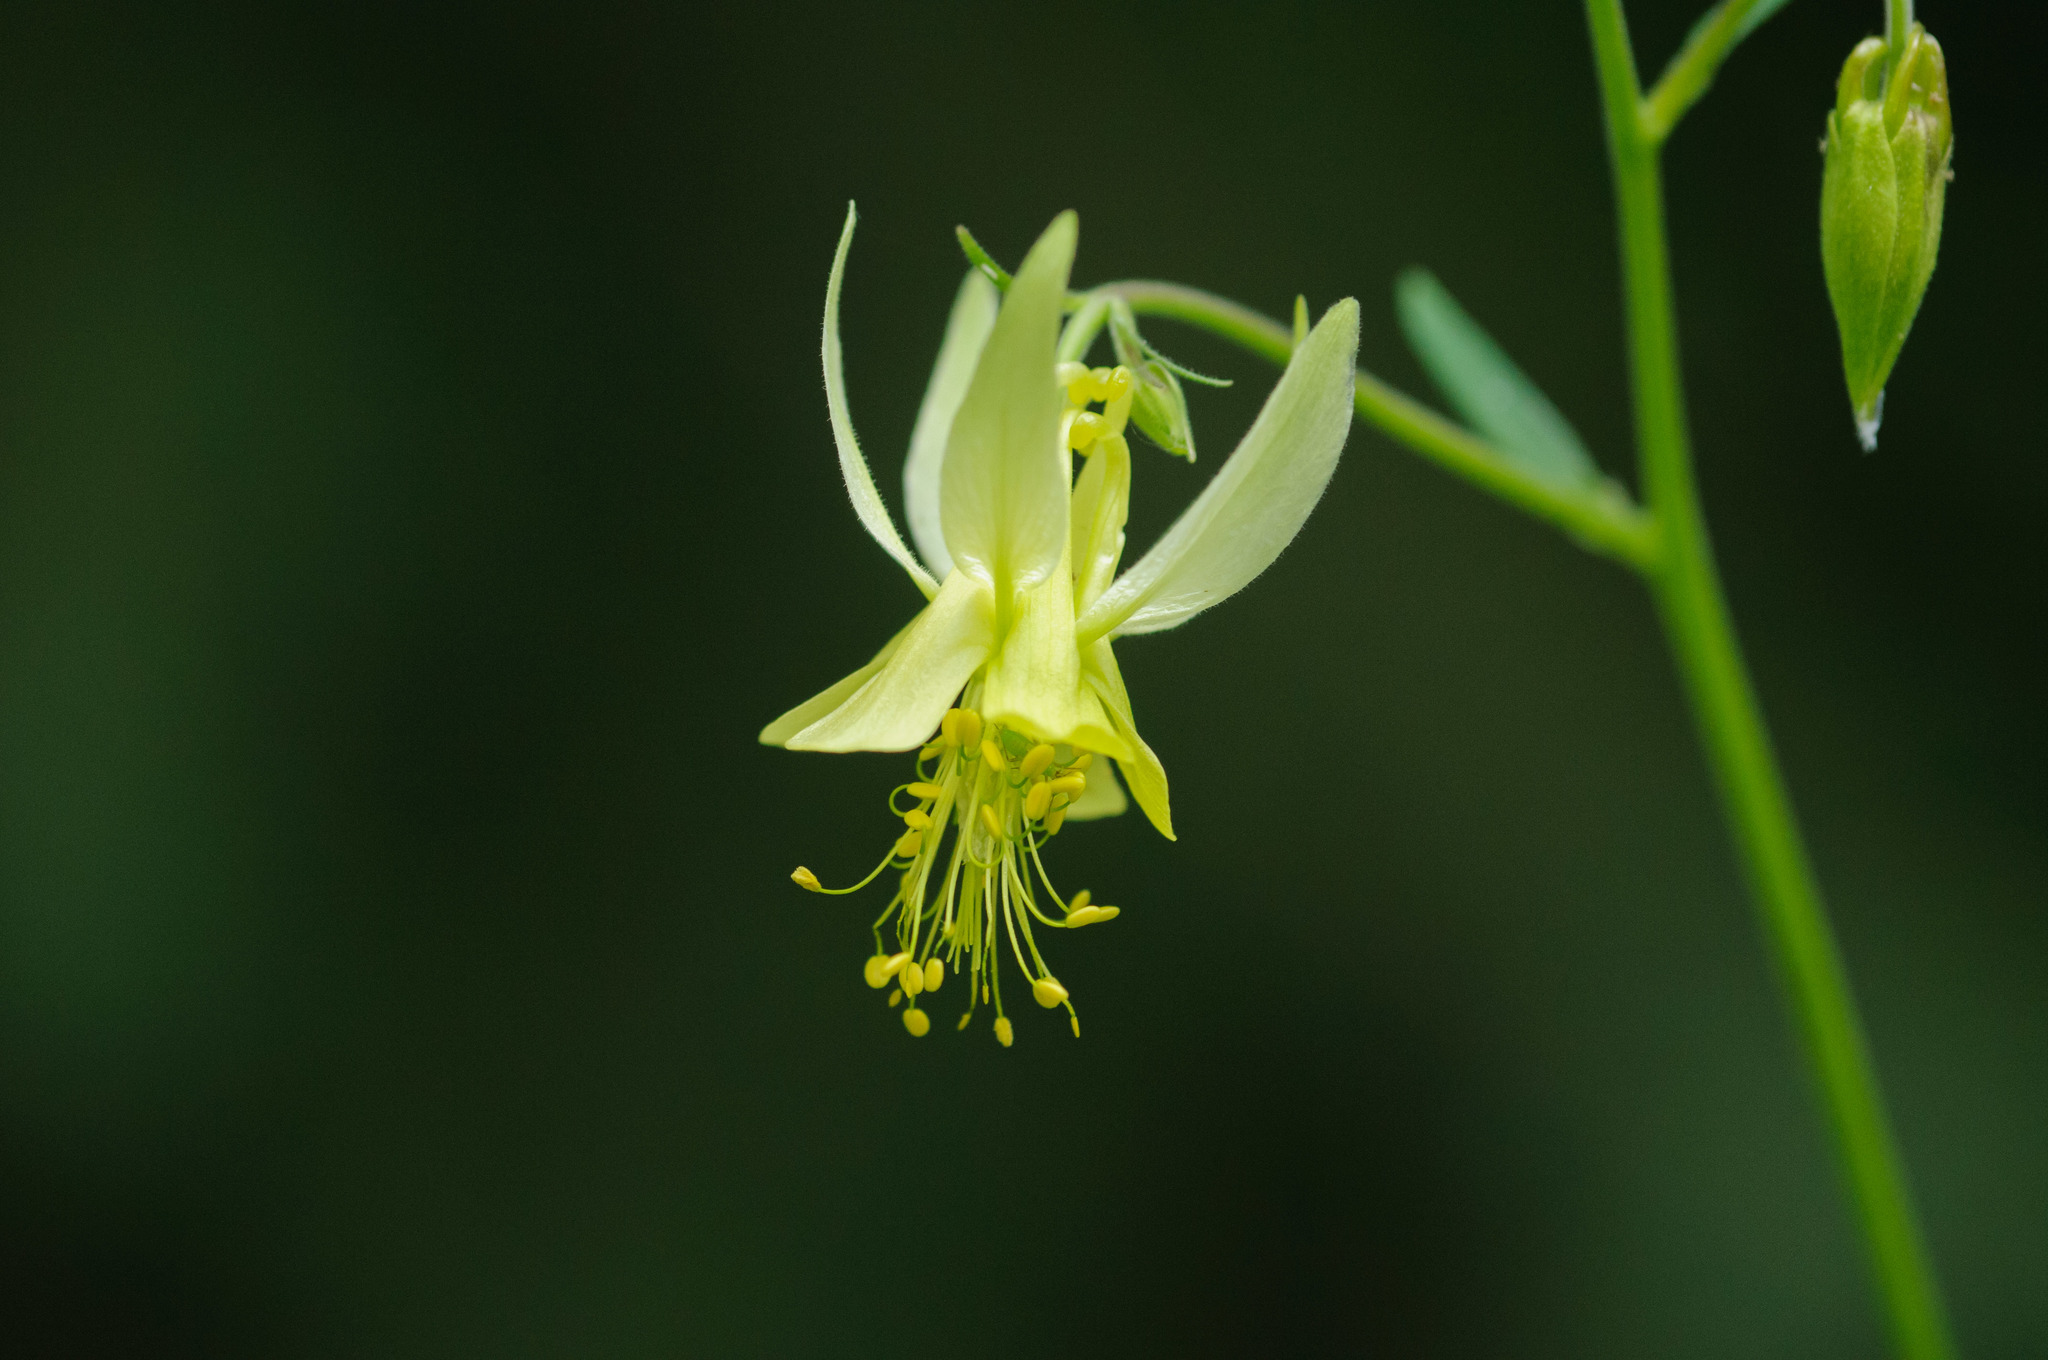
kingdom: Plantae
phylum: Tracheophyta
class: Magnoliopsida
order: Ranunculales
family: Ranunculaceae
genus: Aquilegia
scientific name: Aquilegia flavescens
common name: Yellow columbine
